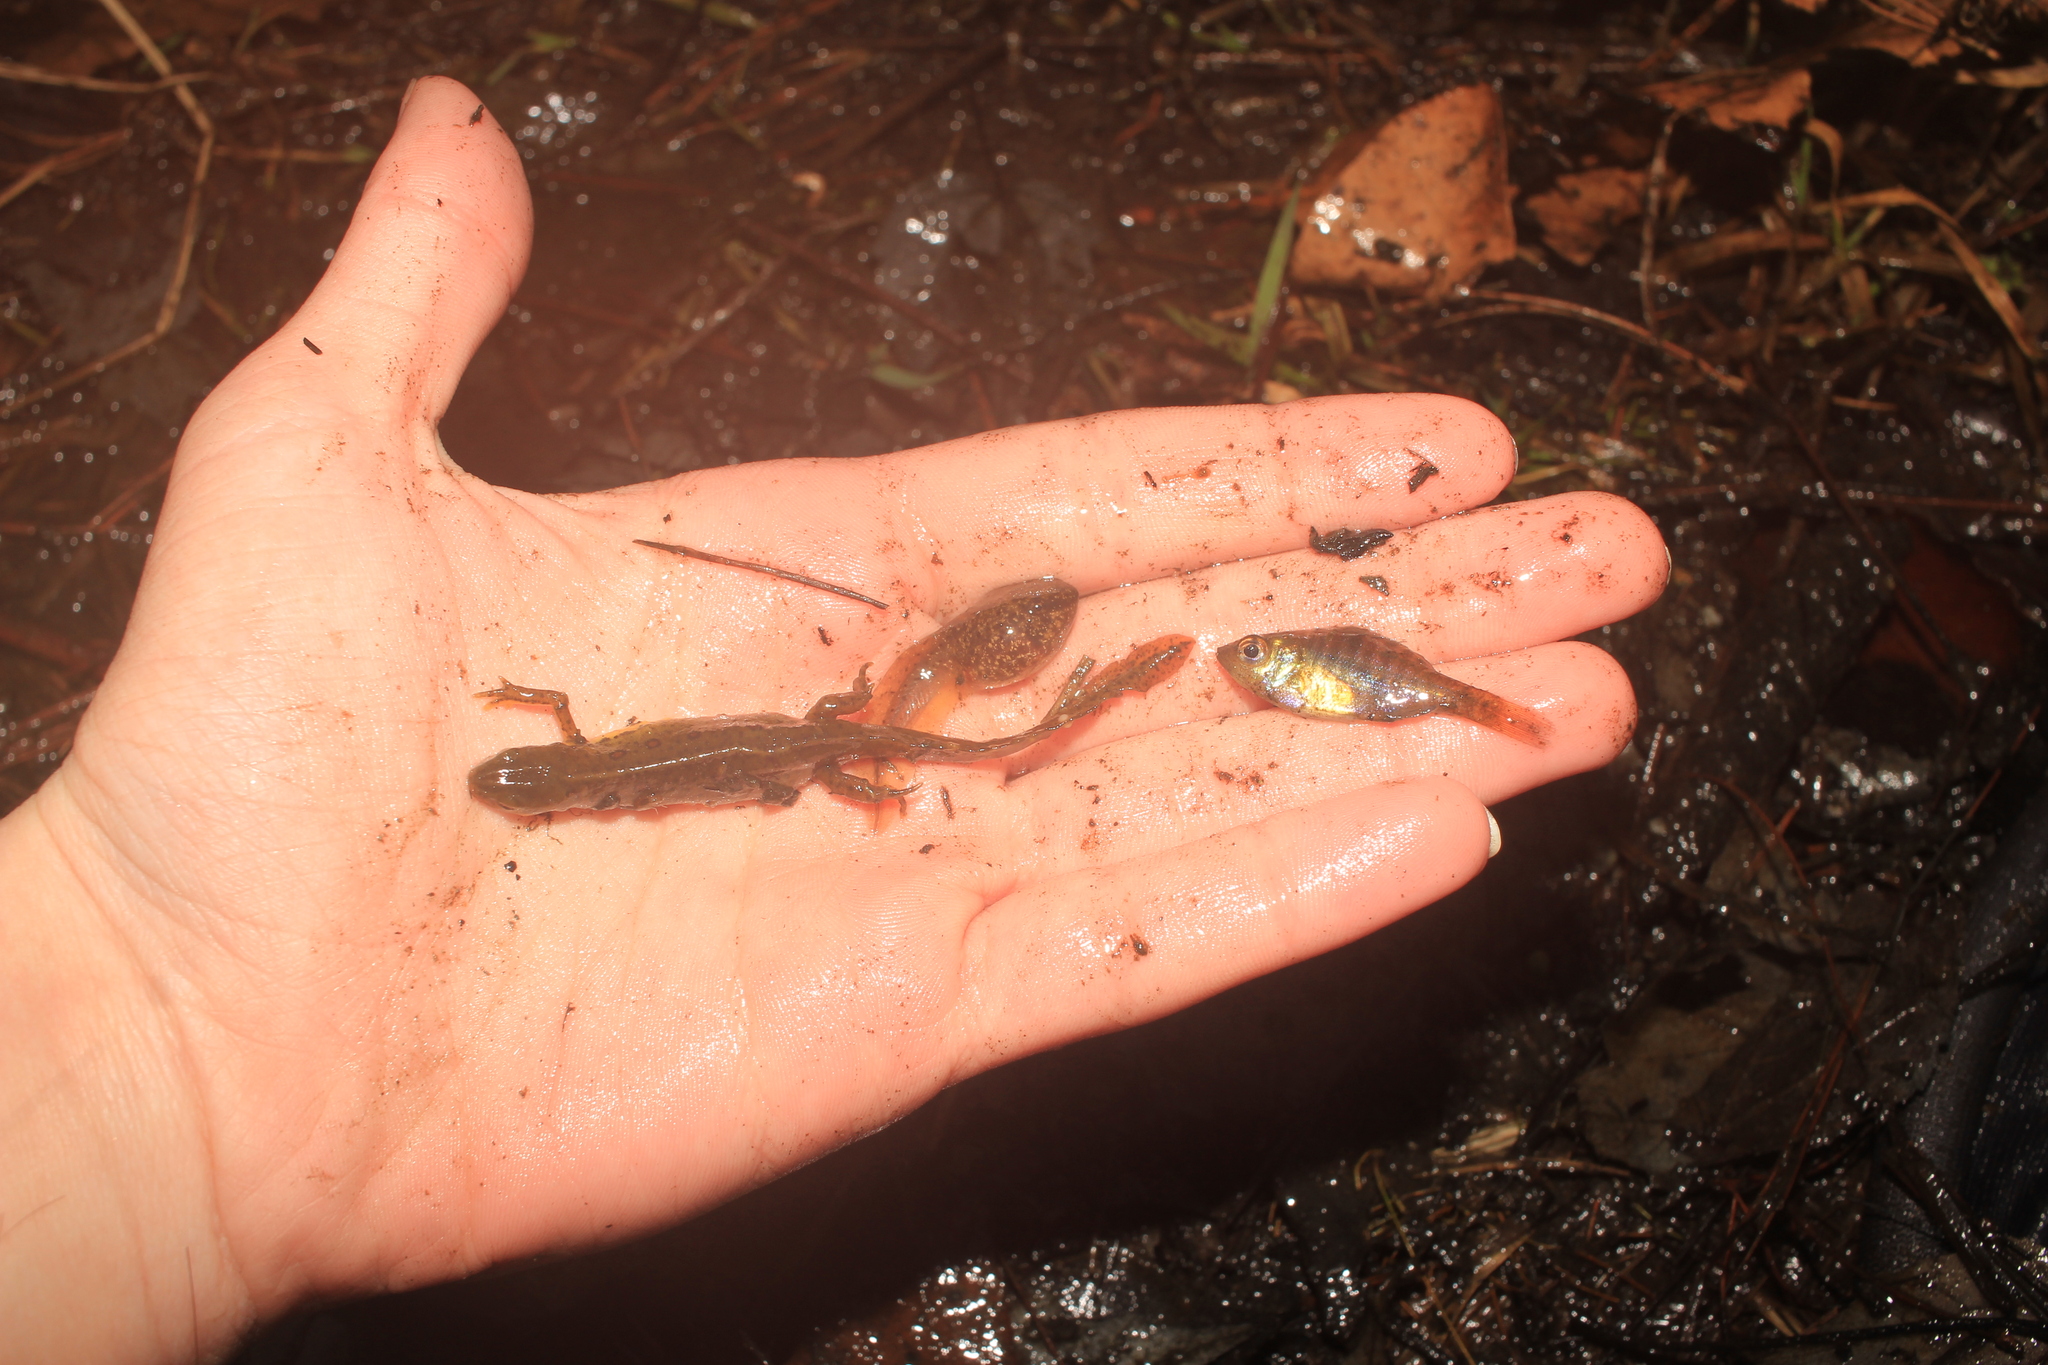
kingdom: Animalia
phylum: Chordata
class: Amphibia
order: Anura
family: Ranidae
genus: Lithobates
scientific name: Lithobates catesbeianus
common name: American bullfrog
